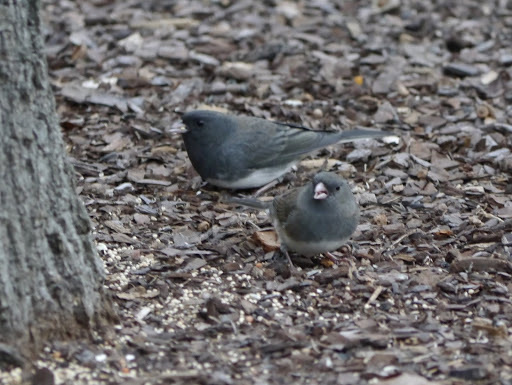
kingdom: Animalia
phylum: Chordata
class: Aves
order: Passeriformes
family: Passerellidae
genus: Junco
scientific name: Junco hyemalis
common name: Dark-eyed junco
